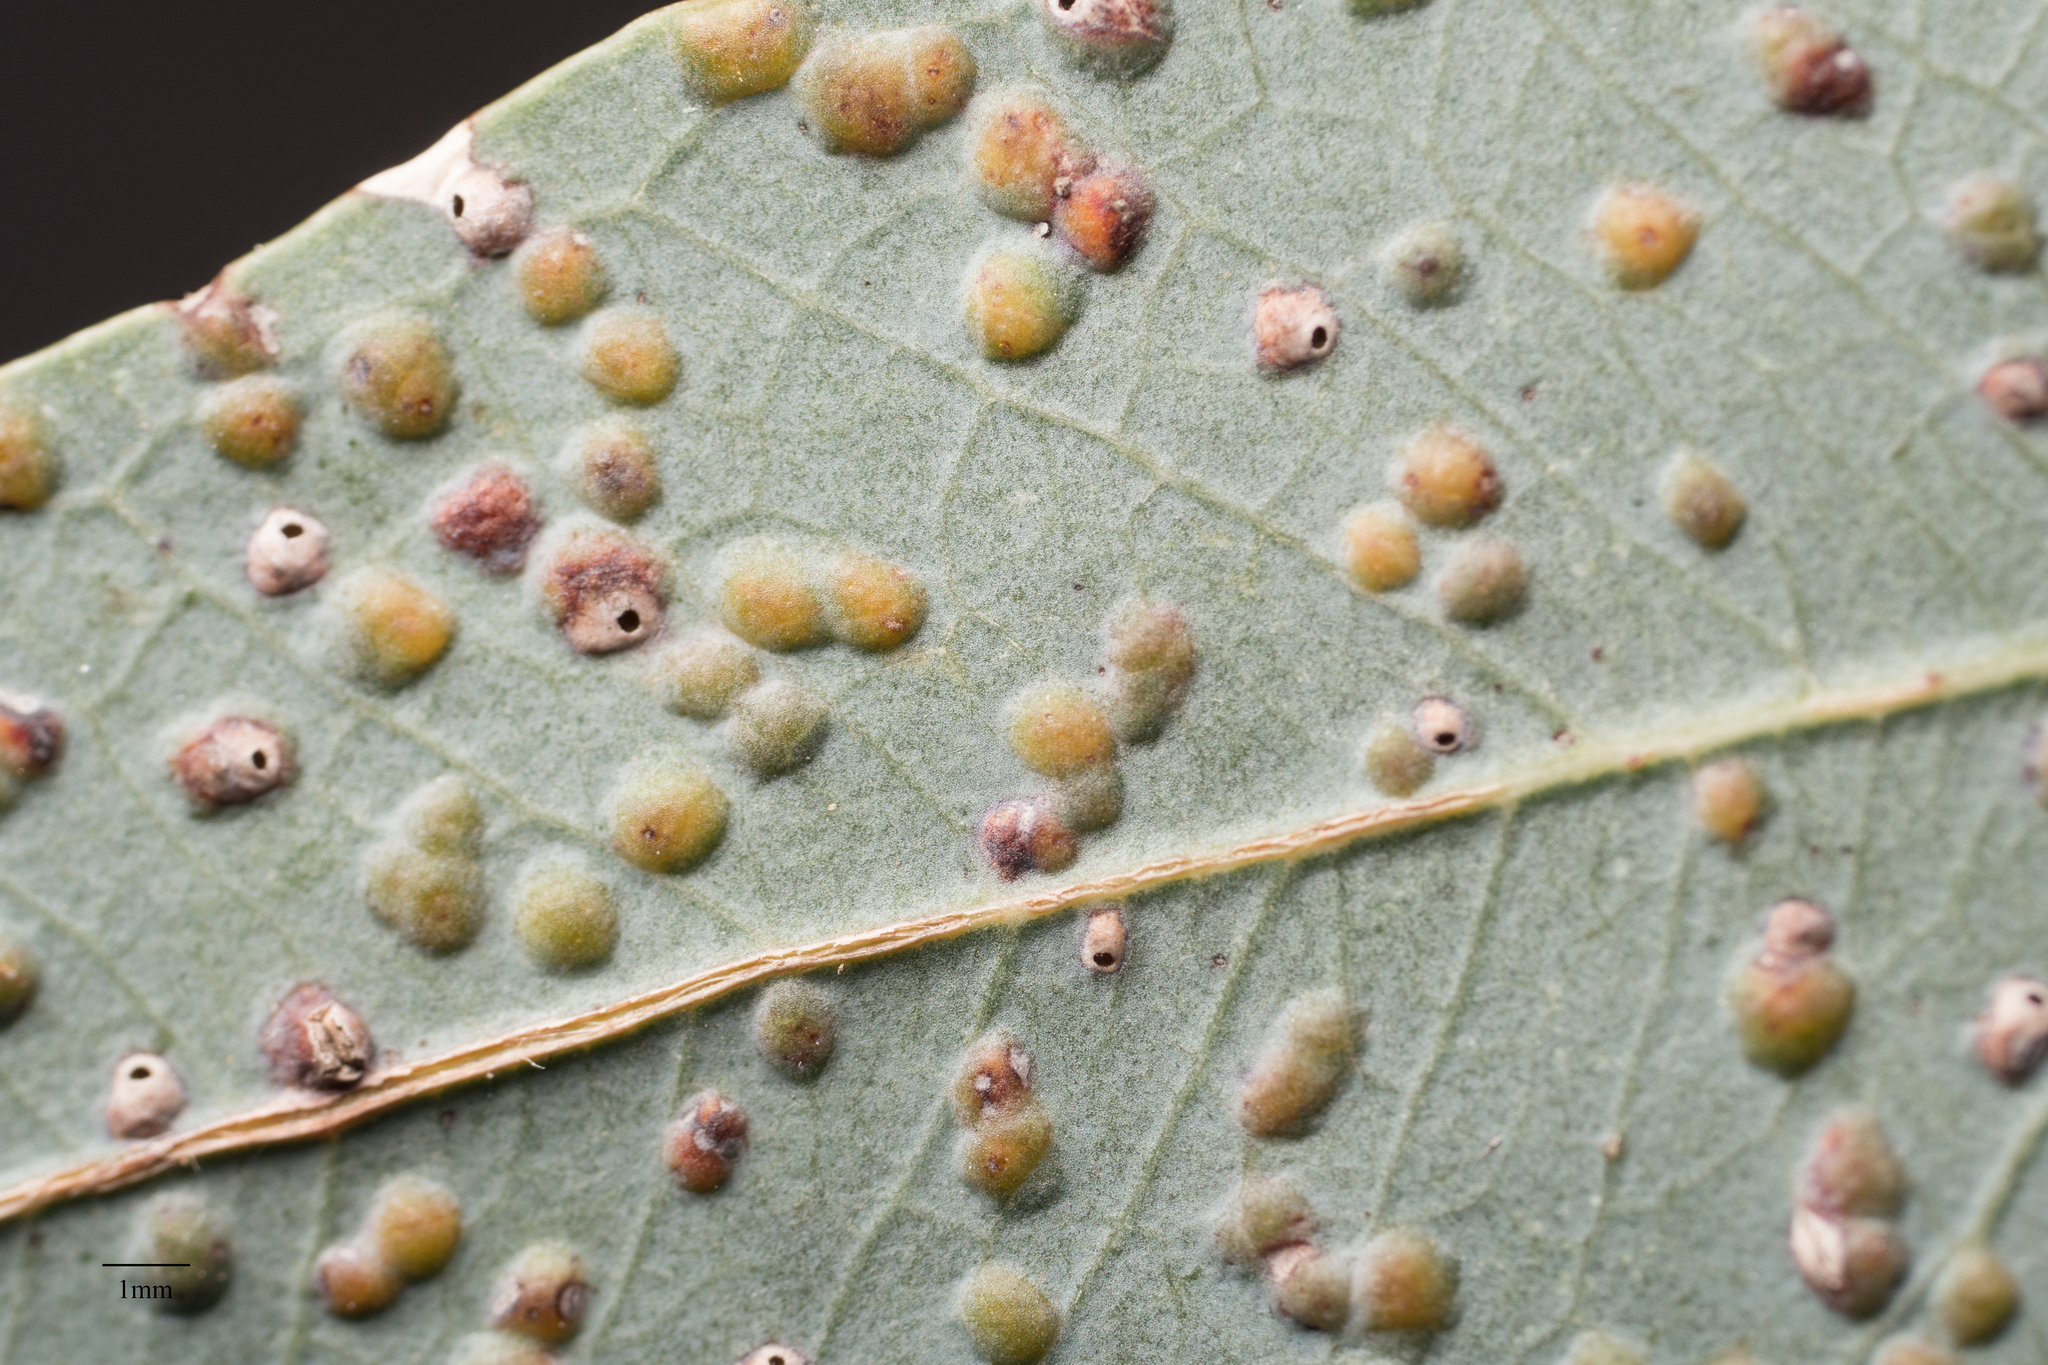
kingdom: Animalia
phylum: Arthropoda
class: Insecta
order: Hymenoptera
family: Eulophidae
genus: Ophelimus
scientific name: Ophelimus maskelli
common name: Gall wasp
